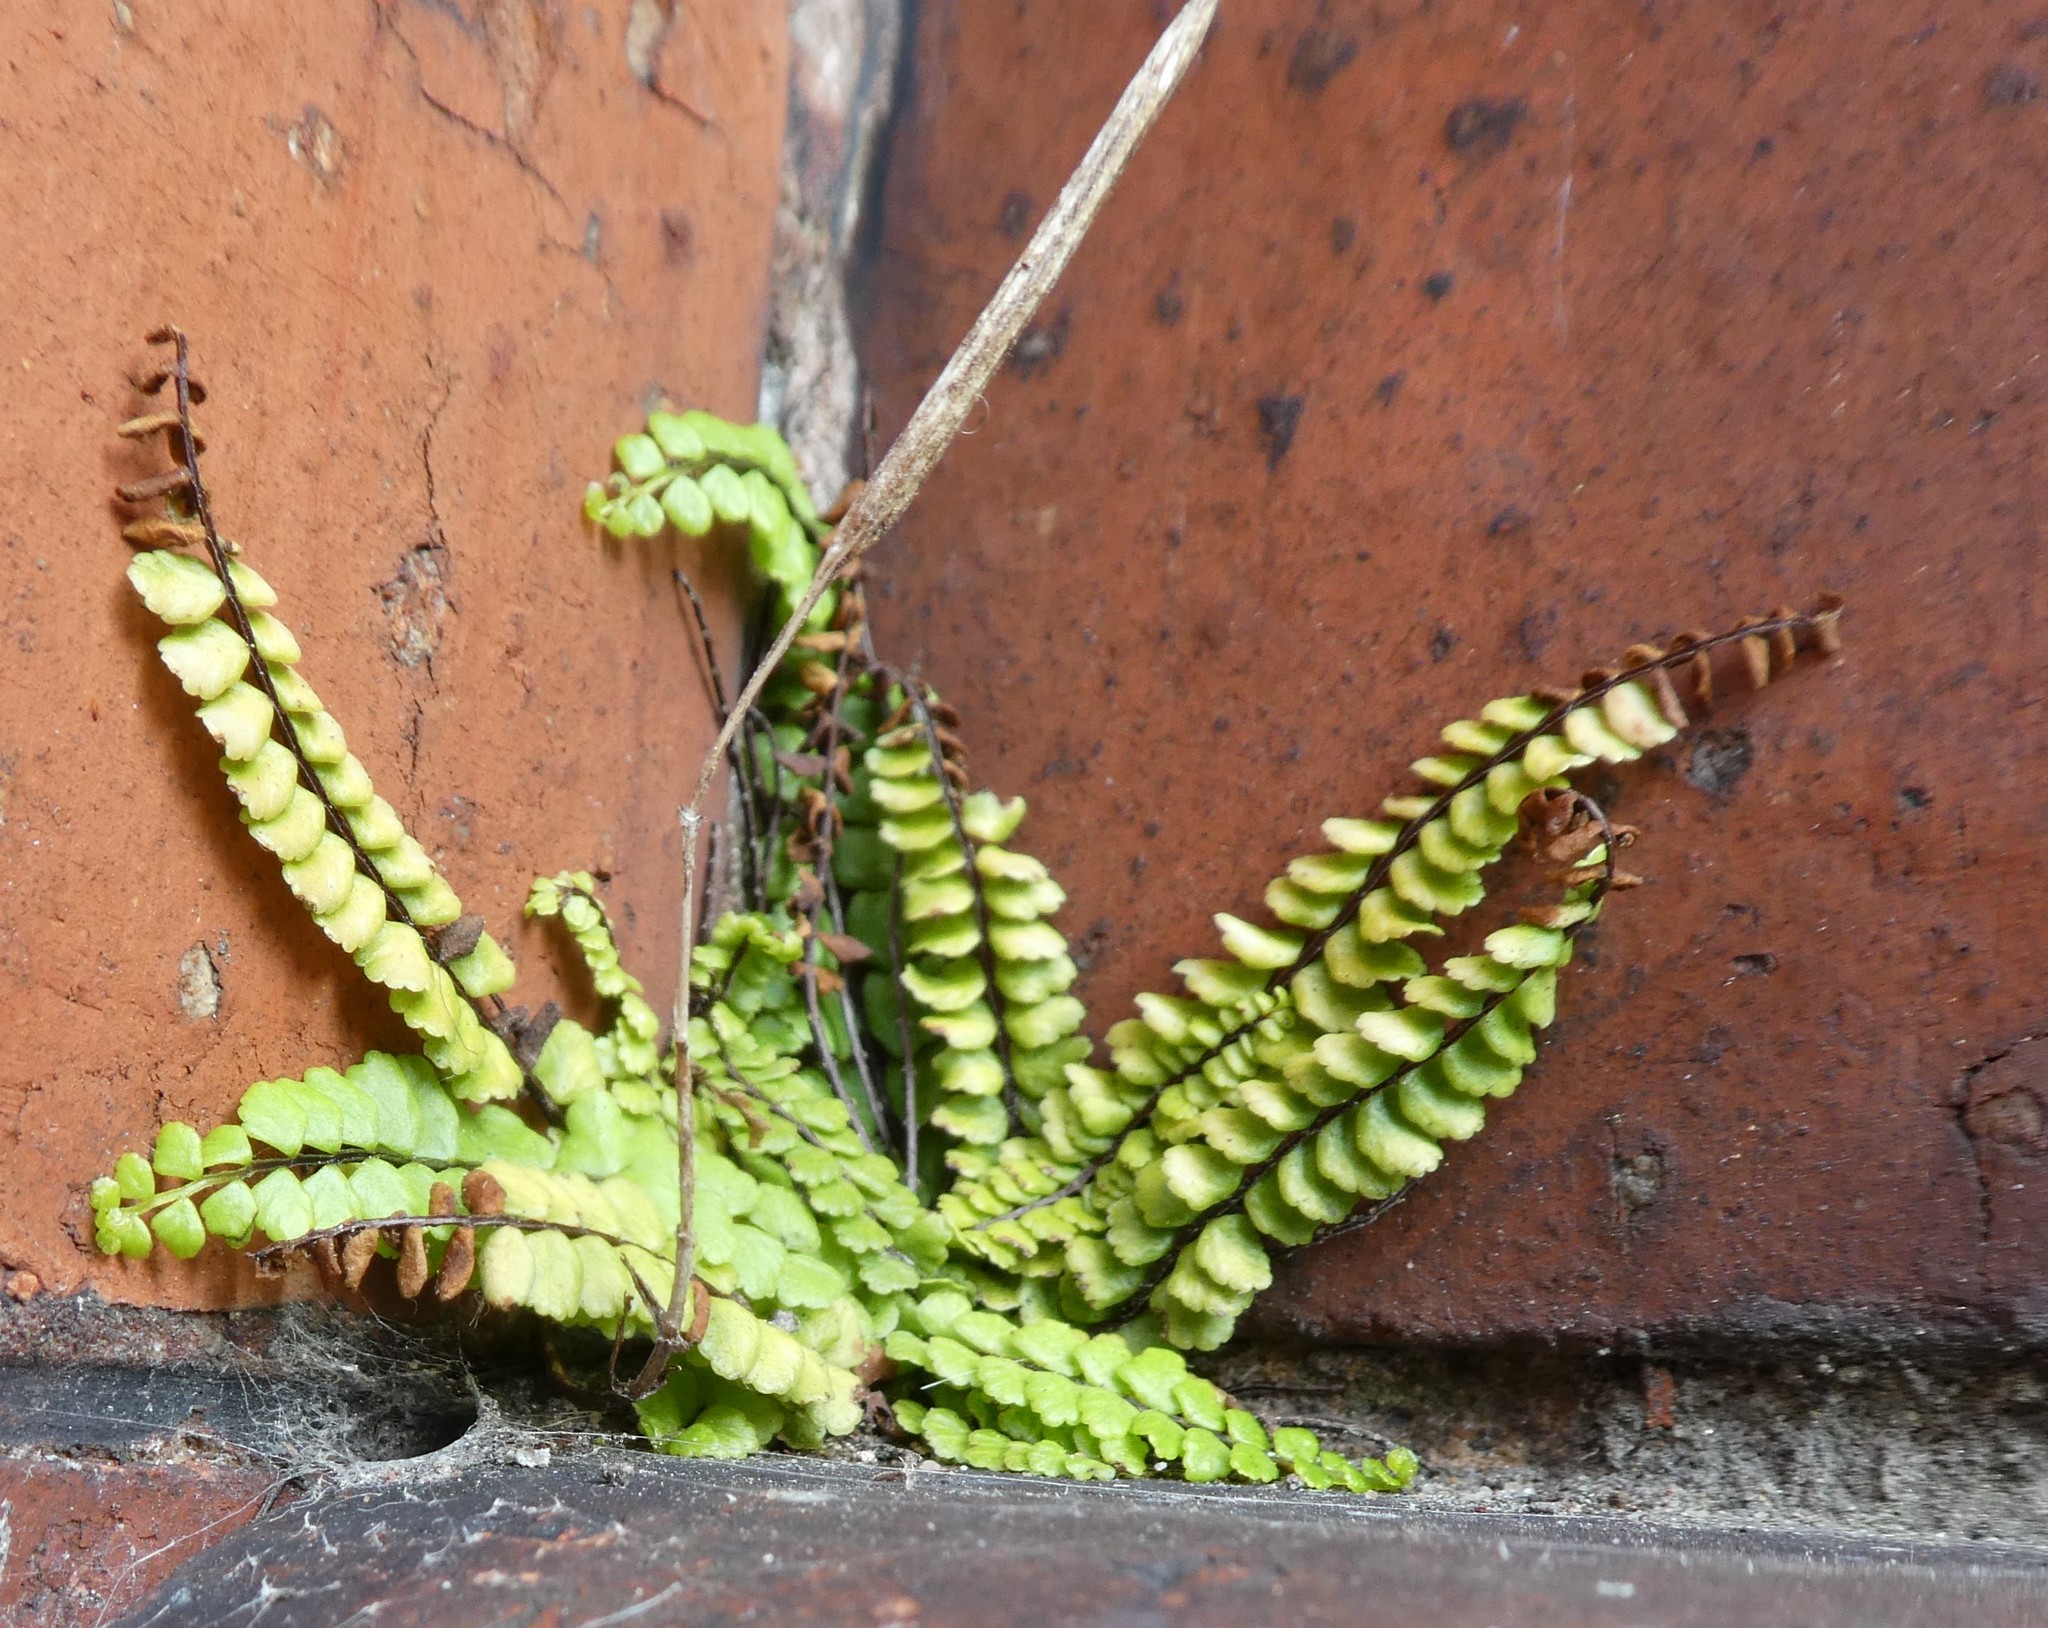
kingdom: Plantae
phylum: Tracheophyta
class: Polypodiopsida
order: Polypodiales
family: Aspleniaceae
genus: Asplenium
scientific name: Asplenium trichomanes
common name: Maidenhair spleenwort
